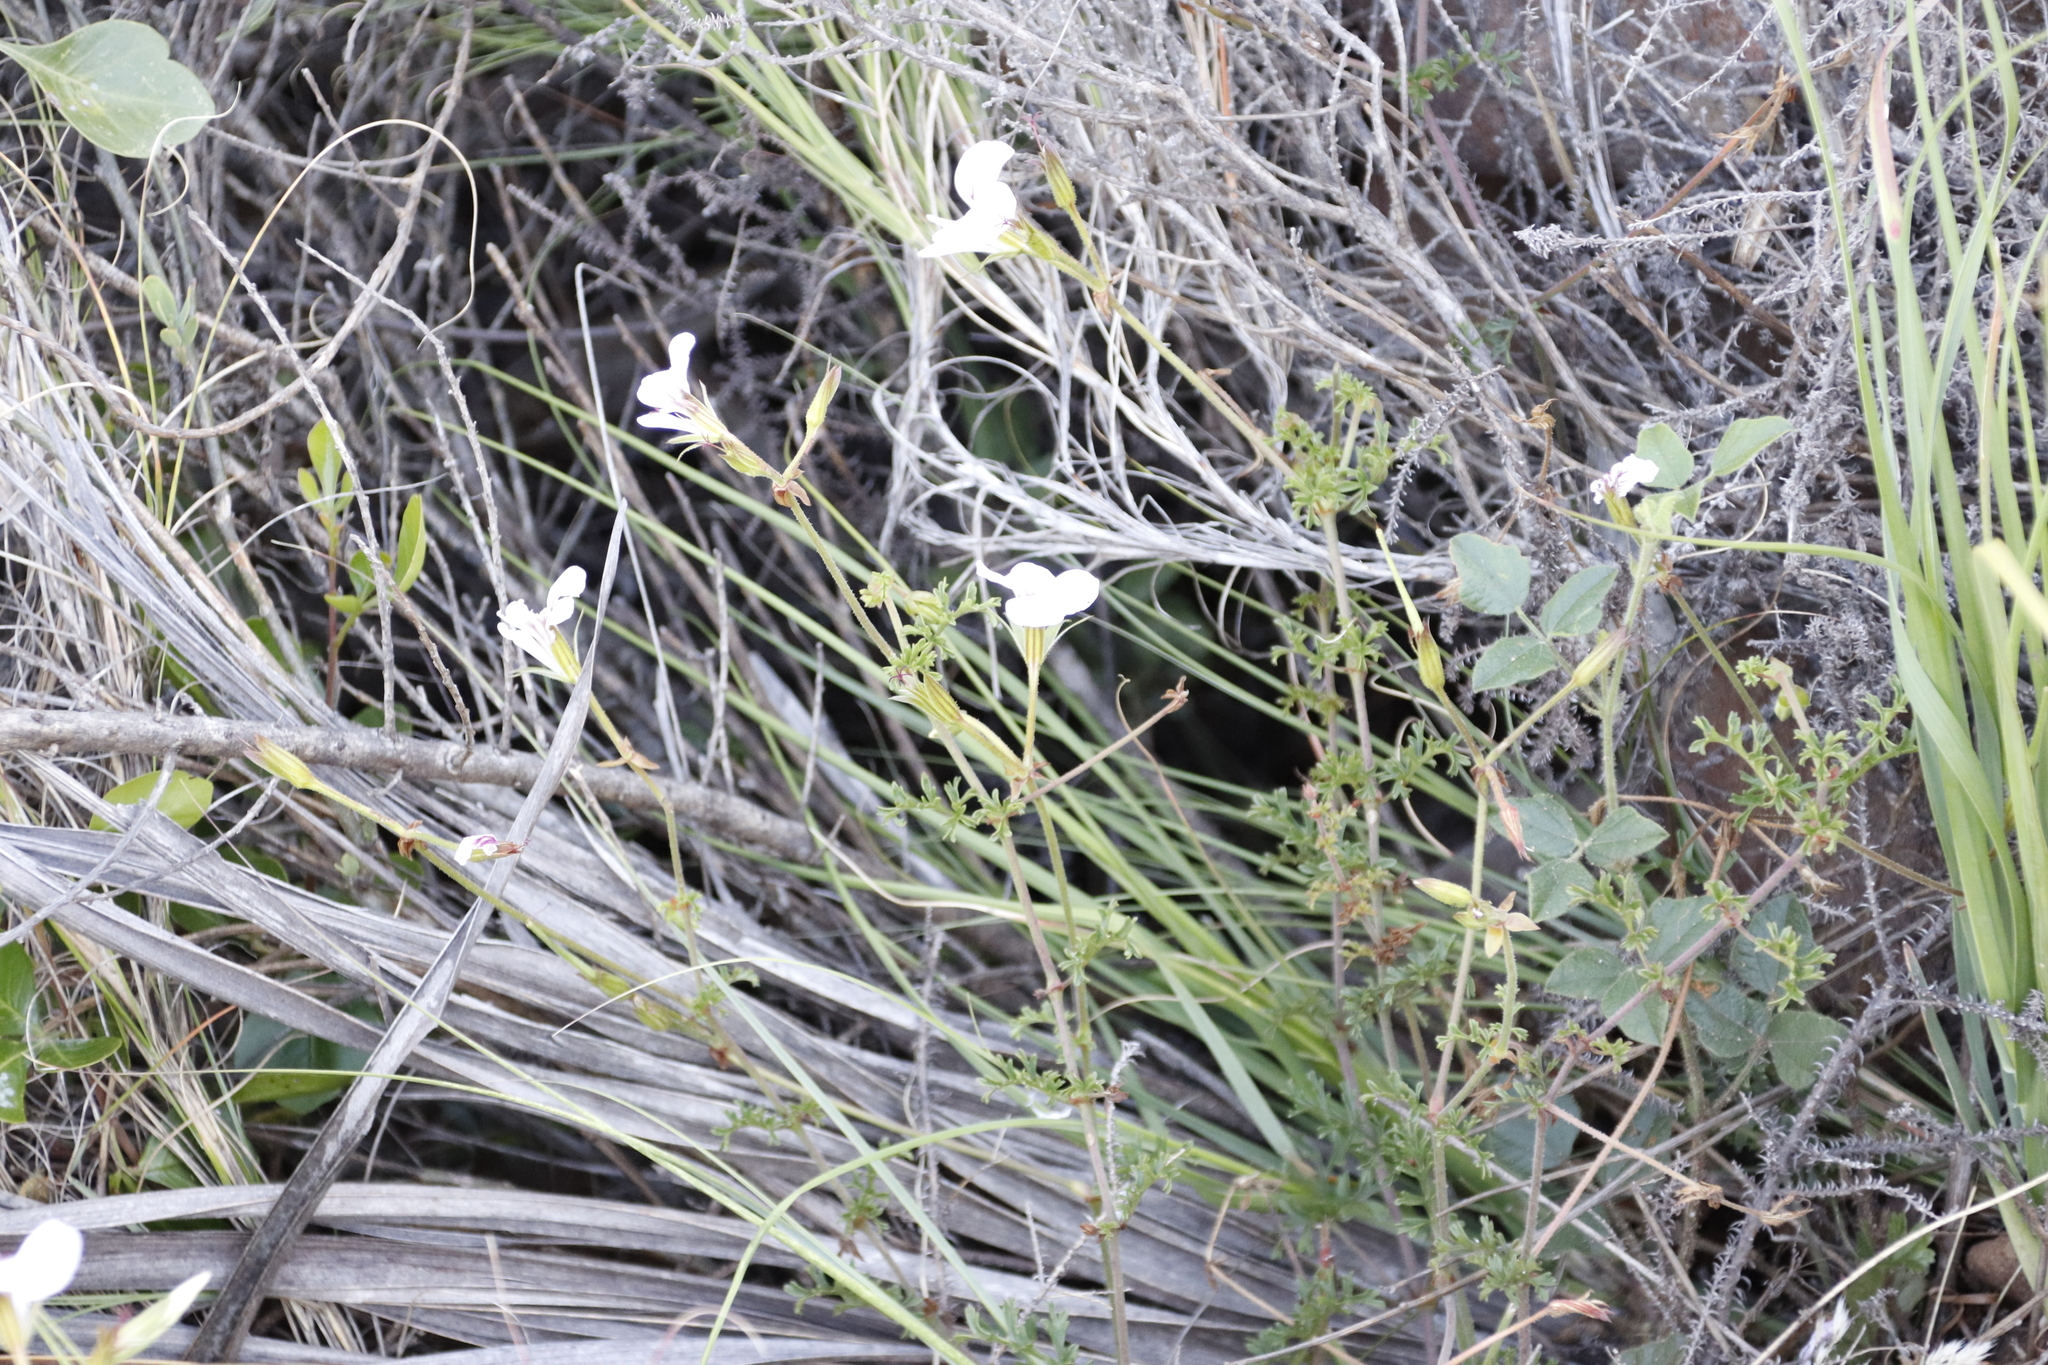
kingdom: Plantae
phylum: Tracheophyta
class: Magnoliopsida
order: Geraniales
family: Geraniaceae
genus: Pelargonium
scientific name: Pelargonium longicaule
